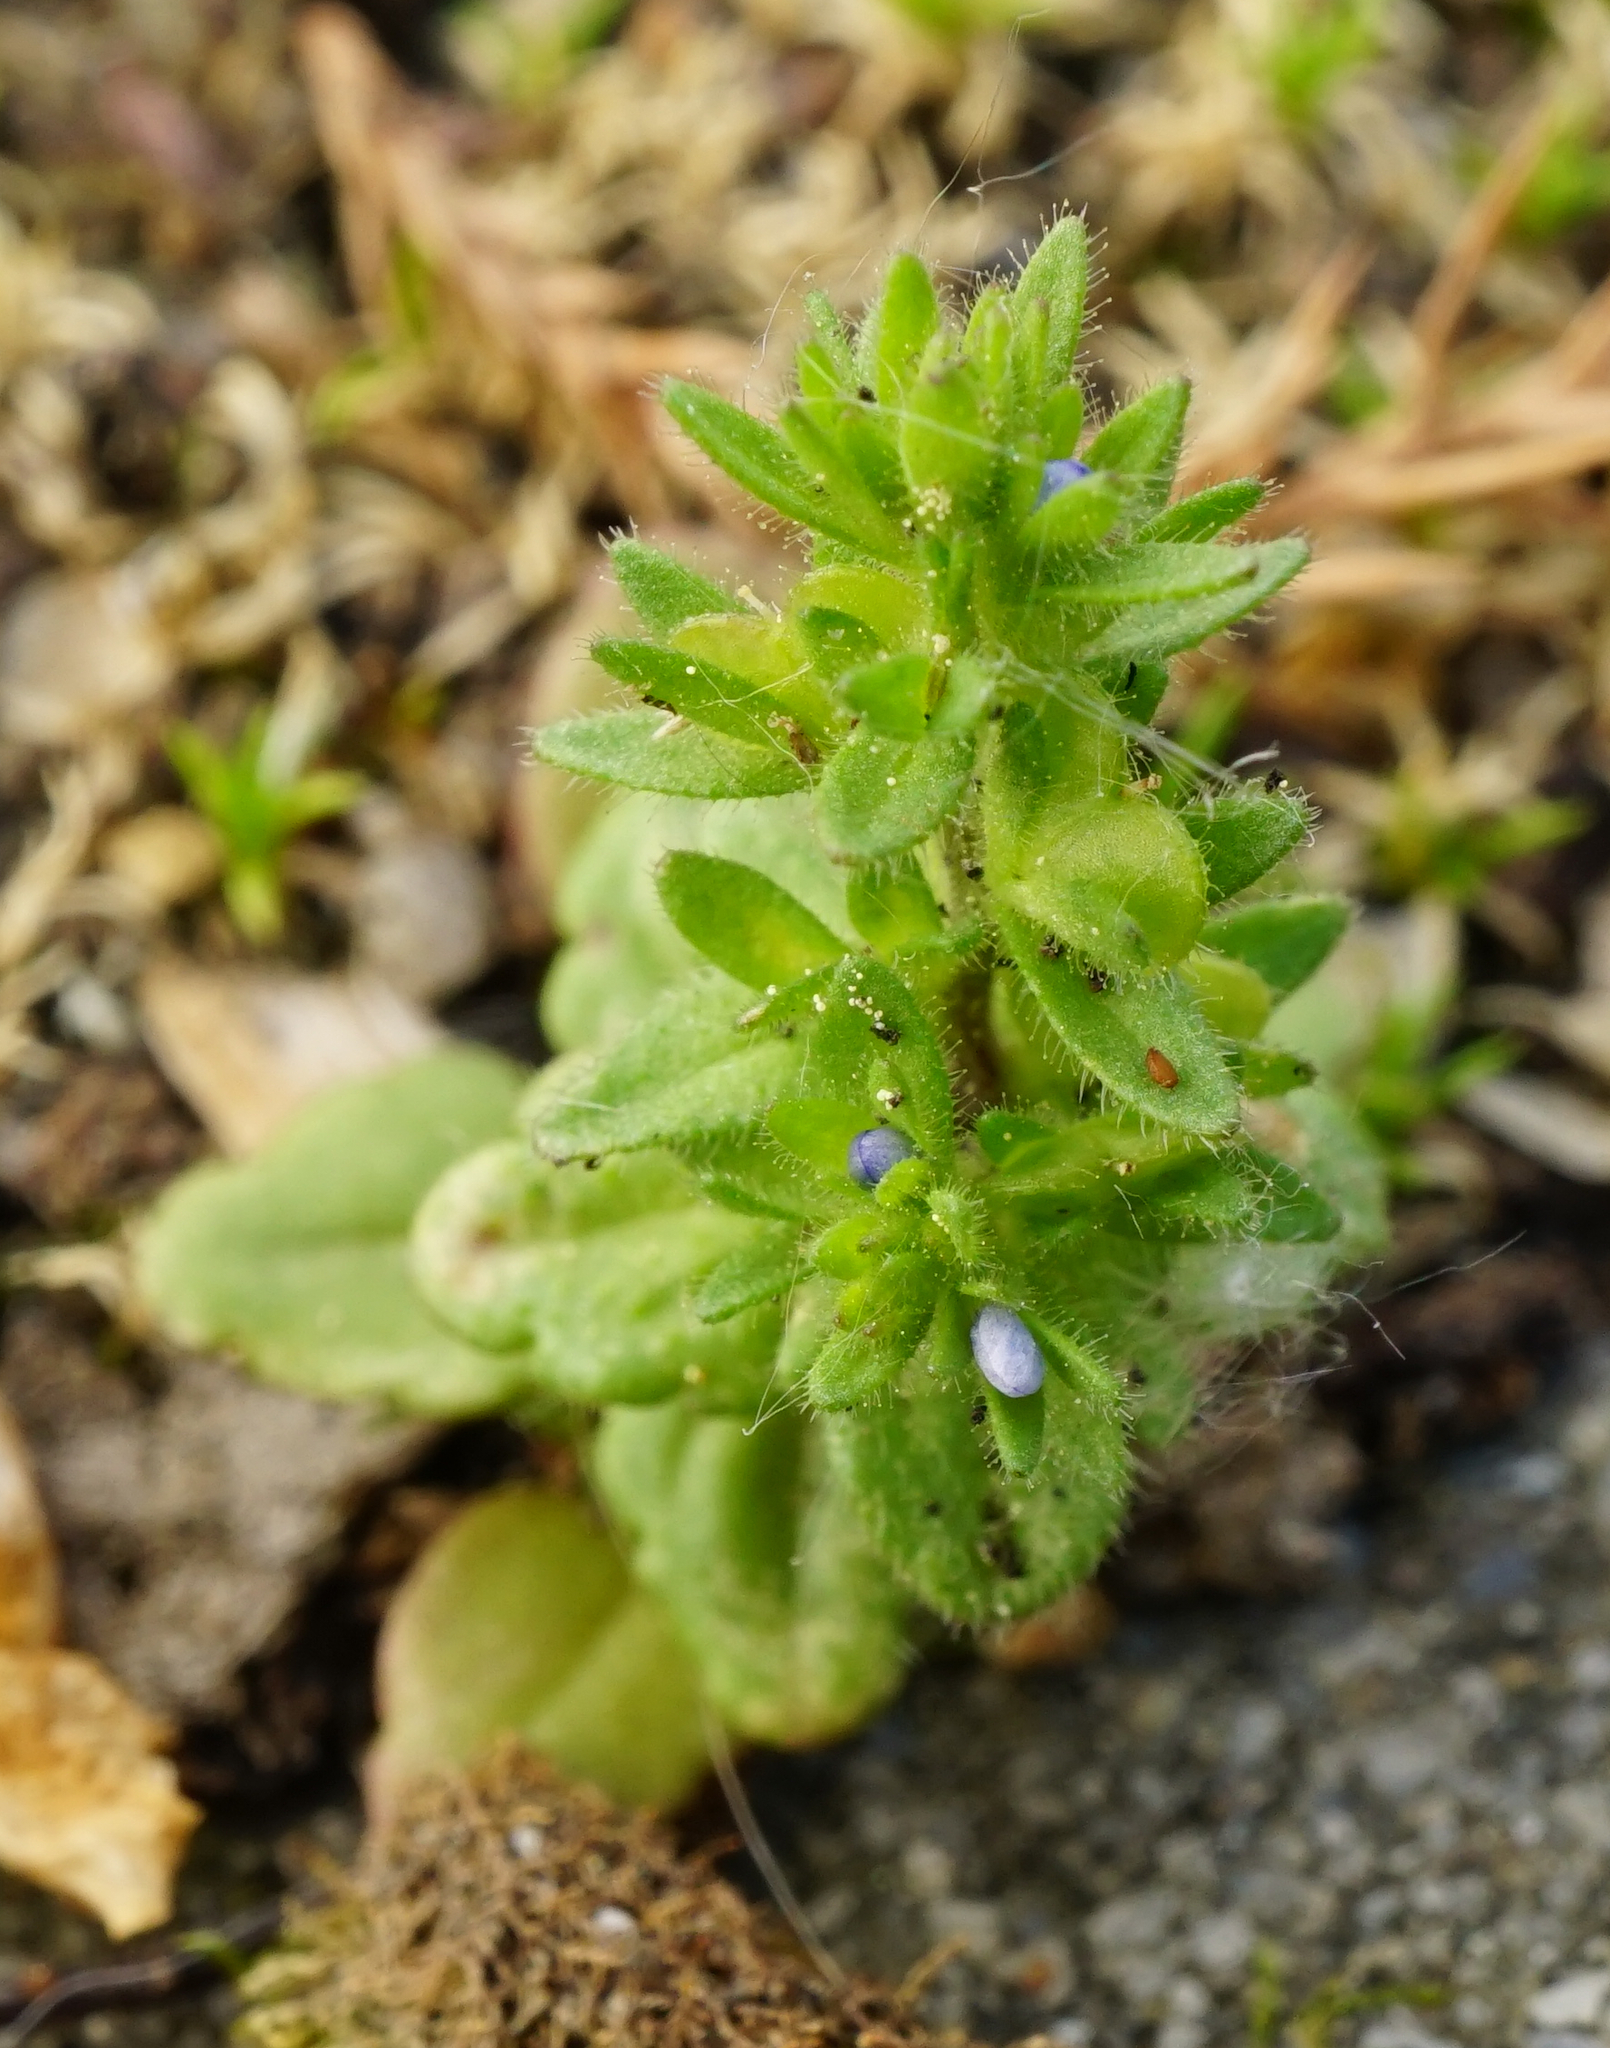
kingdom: Plantae
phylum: Tracheophyta
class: Magnoliopsida
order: Lamiales
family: Plantaginaceae
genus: Veronica
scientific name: Veronica arvensis
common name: Corn speedwell
